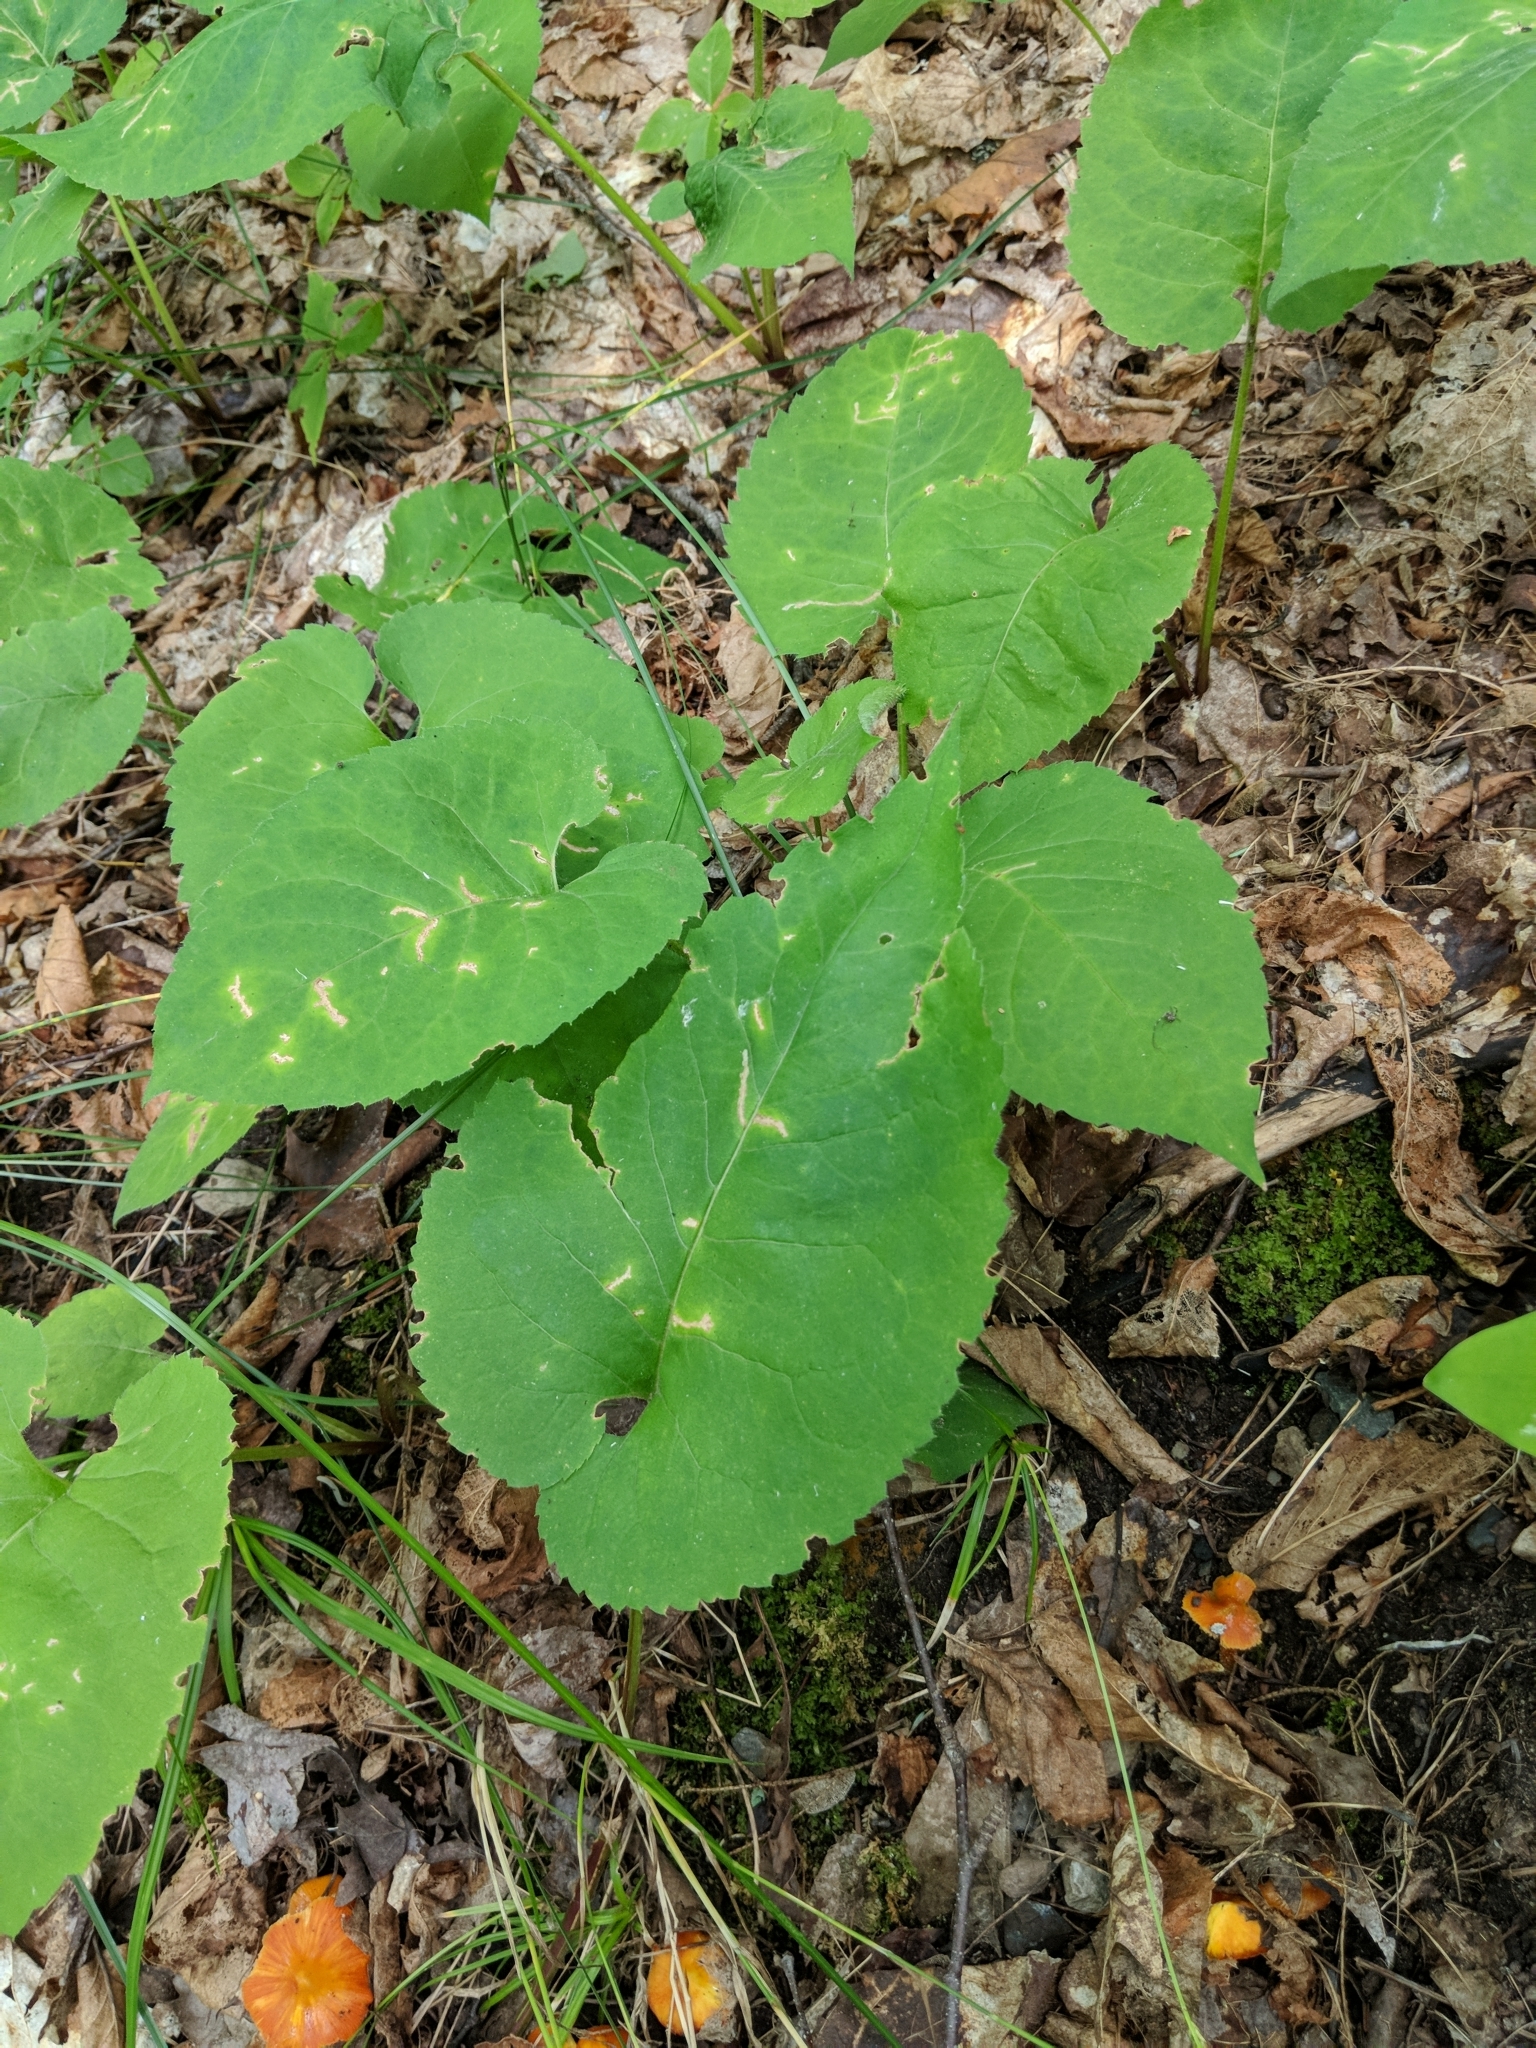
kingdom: Plantae
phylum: Tracheophyta
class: Magnoliopsida
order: Asterales
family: Asteraceae
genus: Eurybia
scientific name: Eurybia macrophylla
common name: Big-leaved aster
